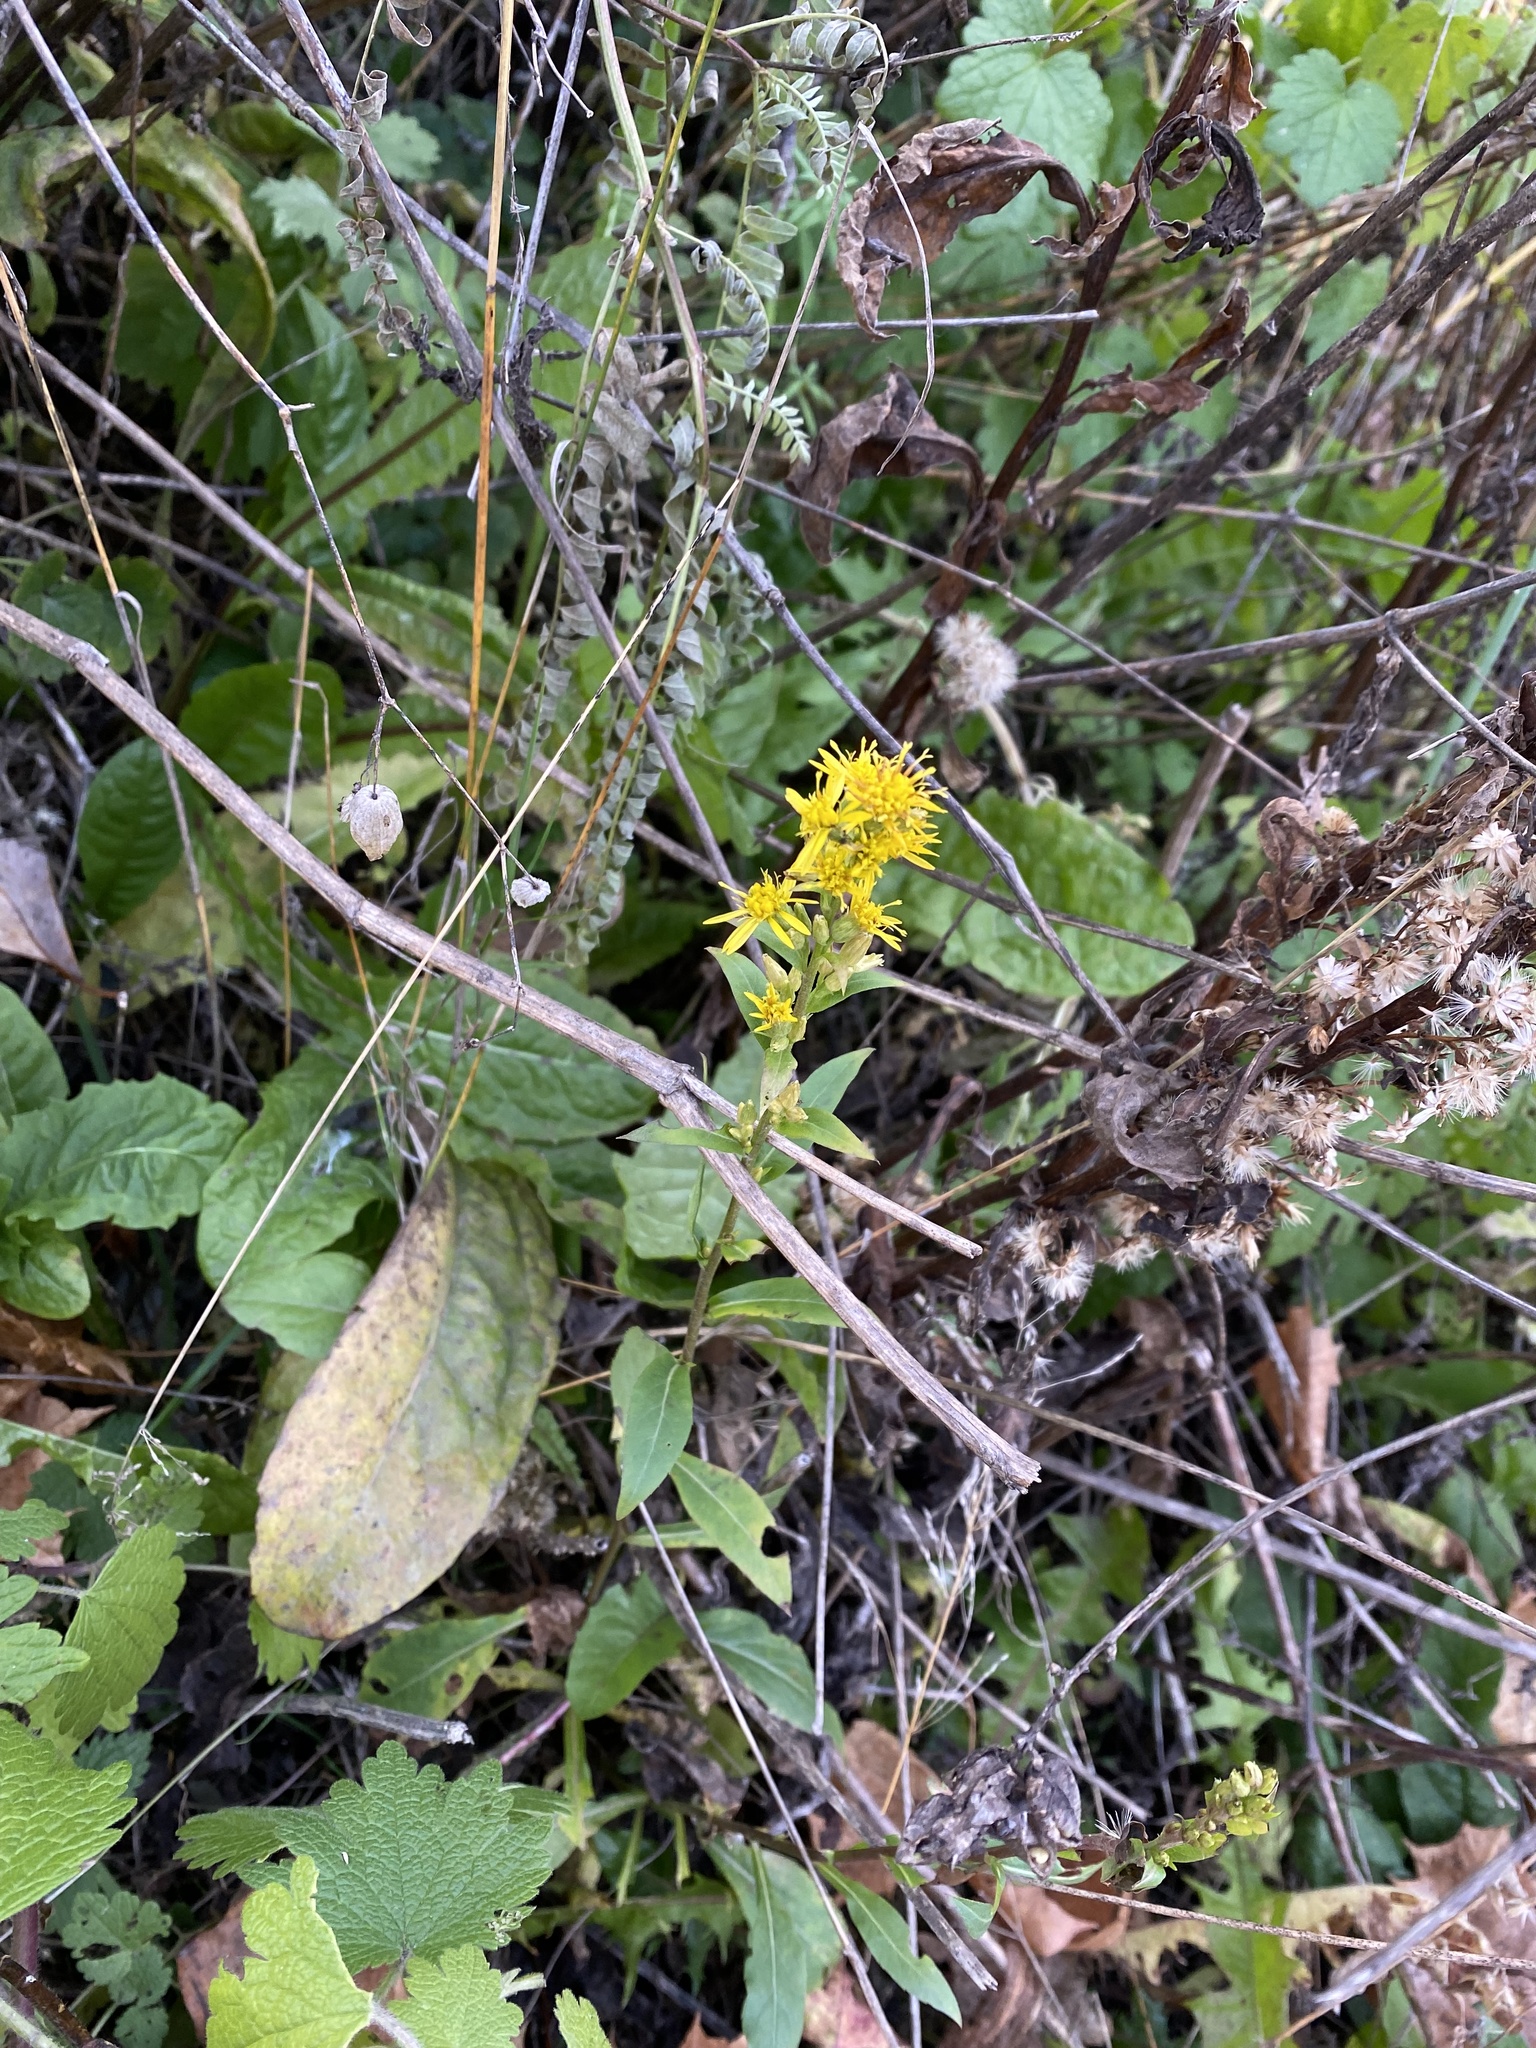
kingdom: Plantae
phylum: Tracheophyta
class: Magnoliopsida
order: Asterales
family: Asteraceae
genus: Solidago
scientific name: Solidago virgaurea
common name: Goldenrod
